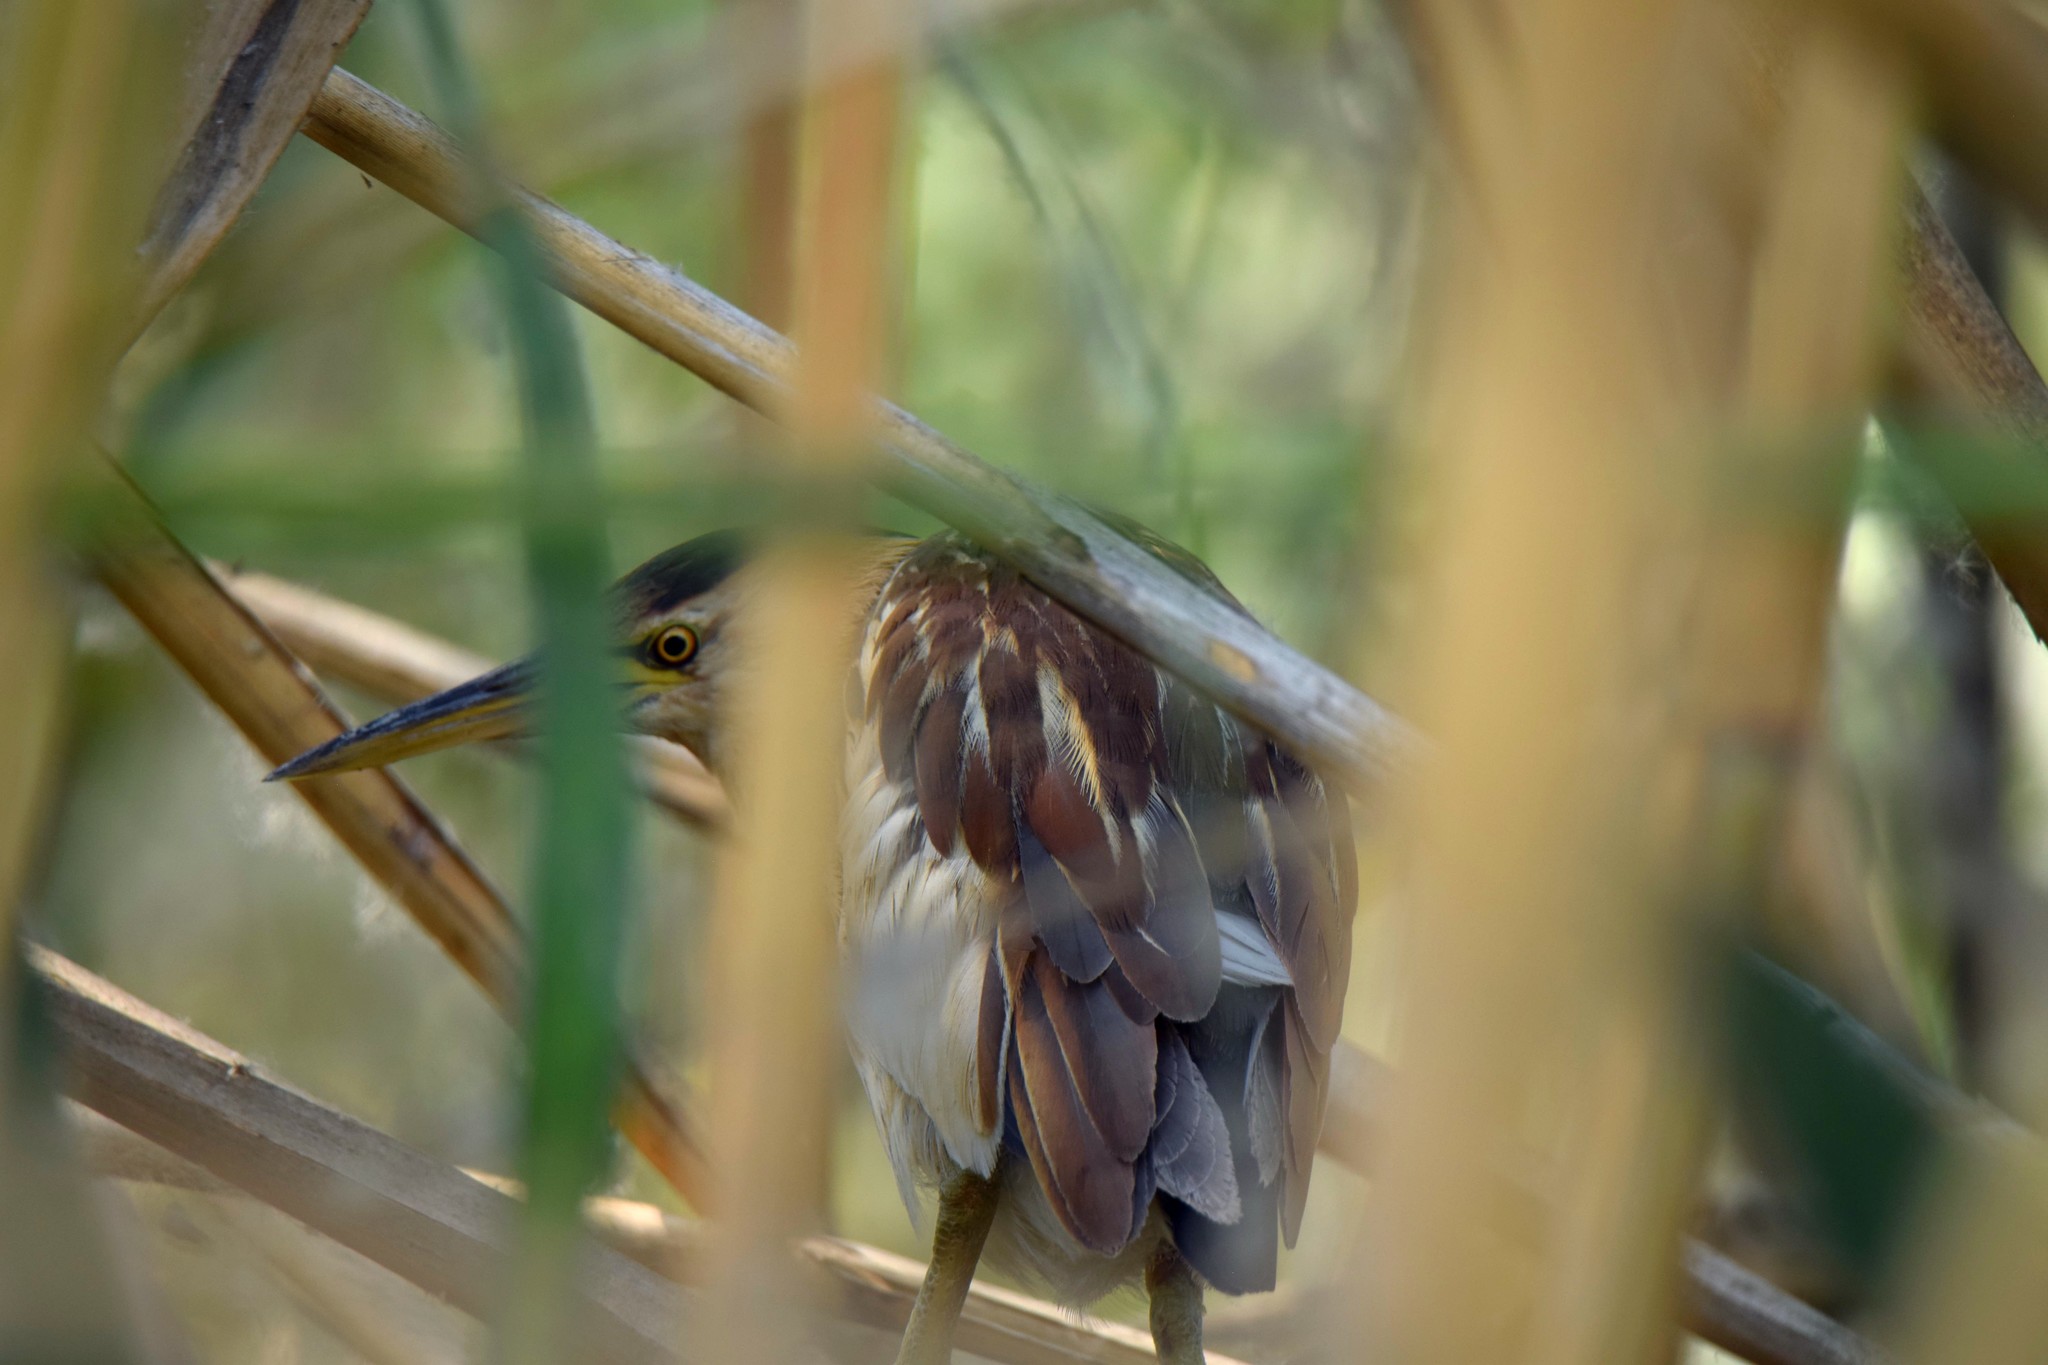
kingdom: Animalia
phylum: Chordata
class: Aves
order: Pelecaniformes
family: Ardeidae
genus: Ixobrychus
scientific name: Ixobrychus minutus
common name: Little bittern
